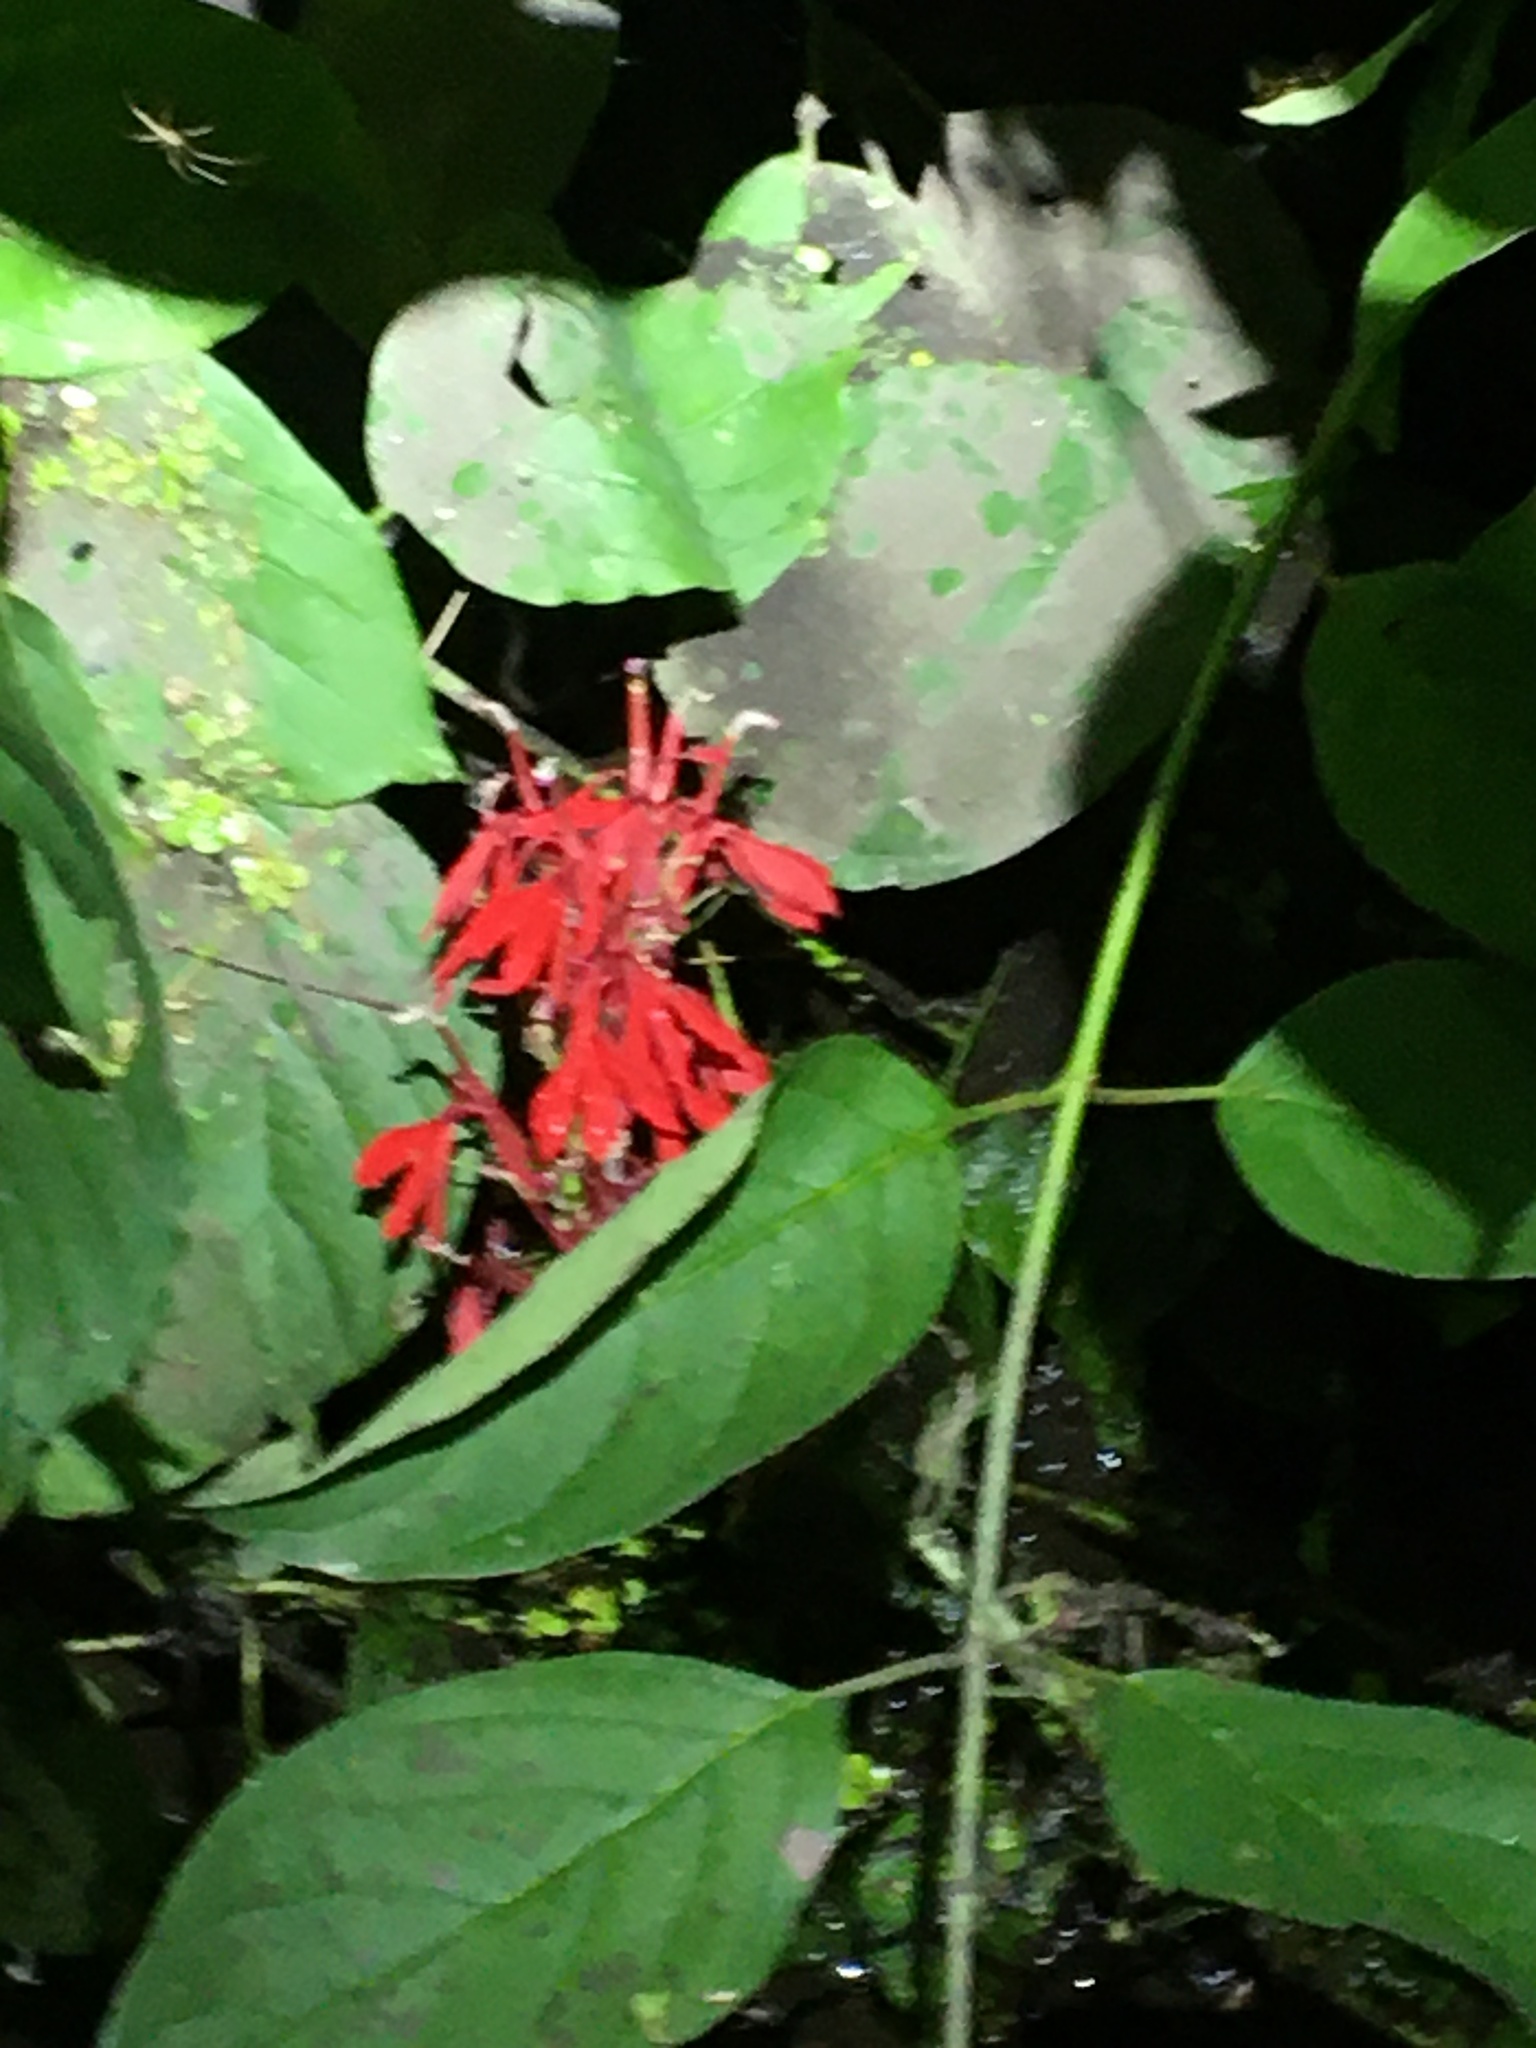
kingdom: Plantae
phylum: Tracheophyta
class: Magnoliopsida
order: Asterales
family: Campanulaceae
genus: Lobelia
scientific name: Lobelia cardinalis
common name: Cardinal flower
